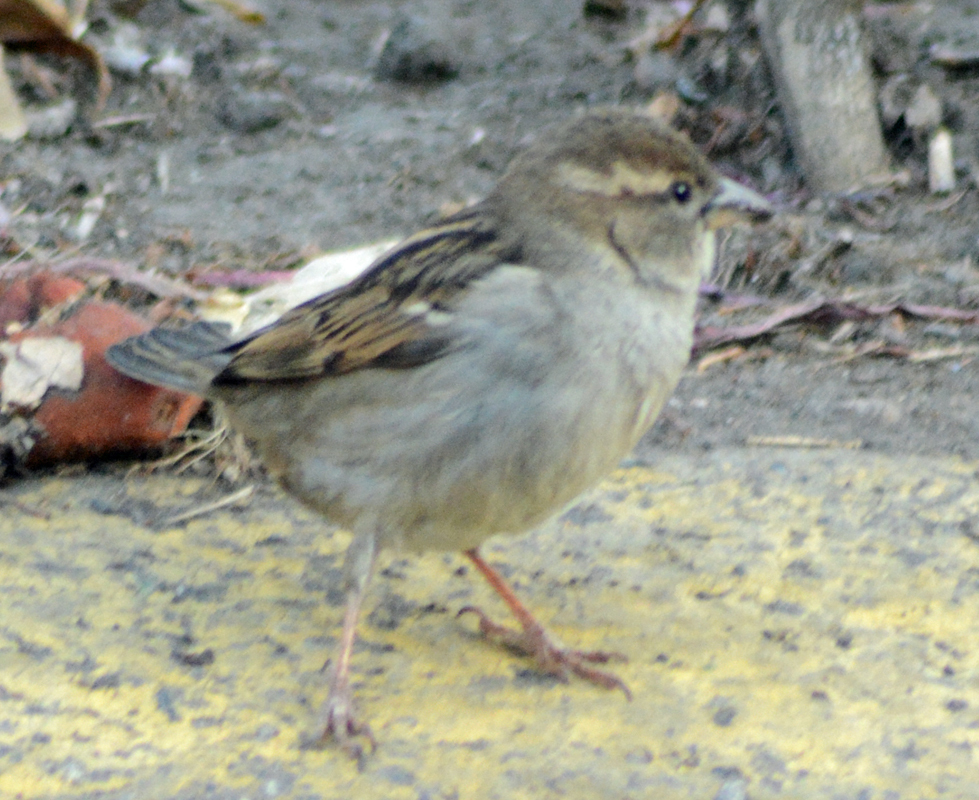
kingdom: Animalia
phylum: Chordata
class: Aves
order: Passeriformes
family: Passeridae
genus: Passer
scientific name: Passer domesticus
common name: House sparrow
